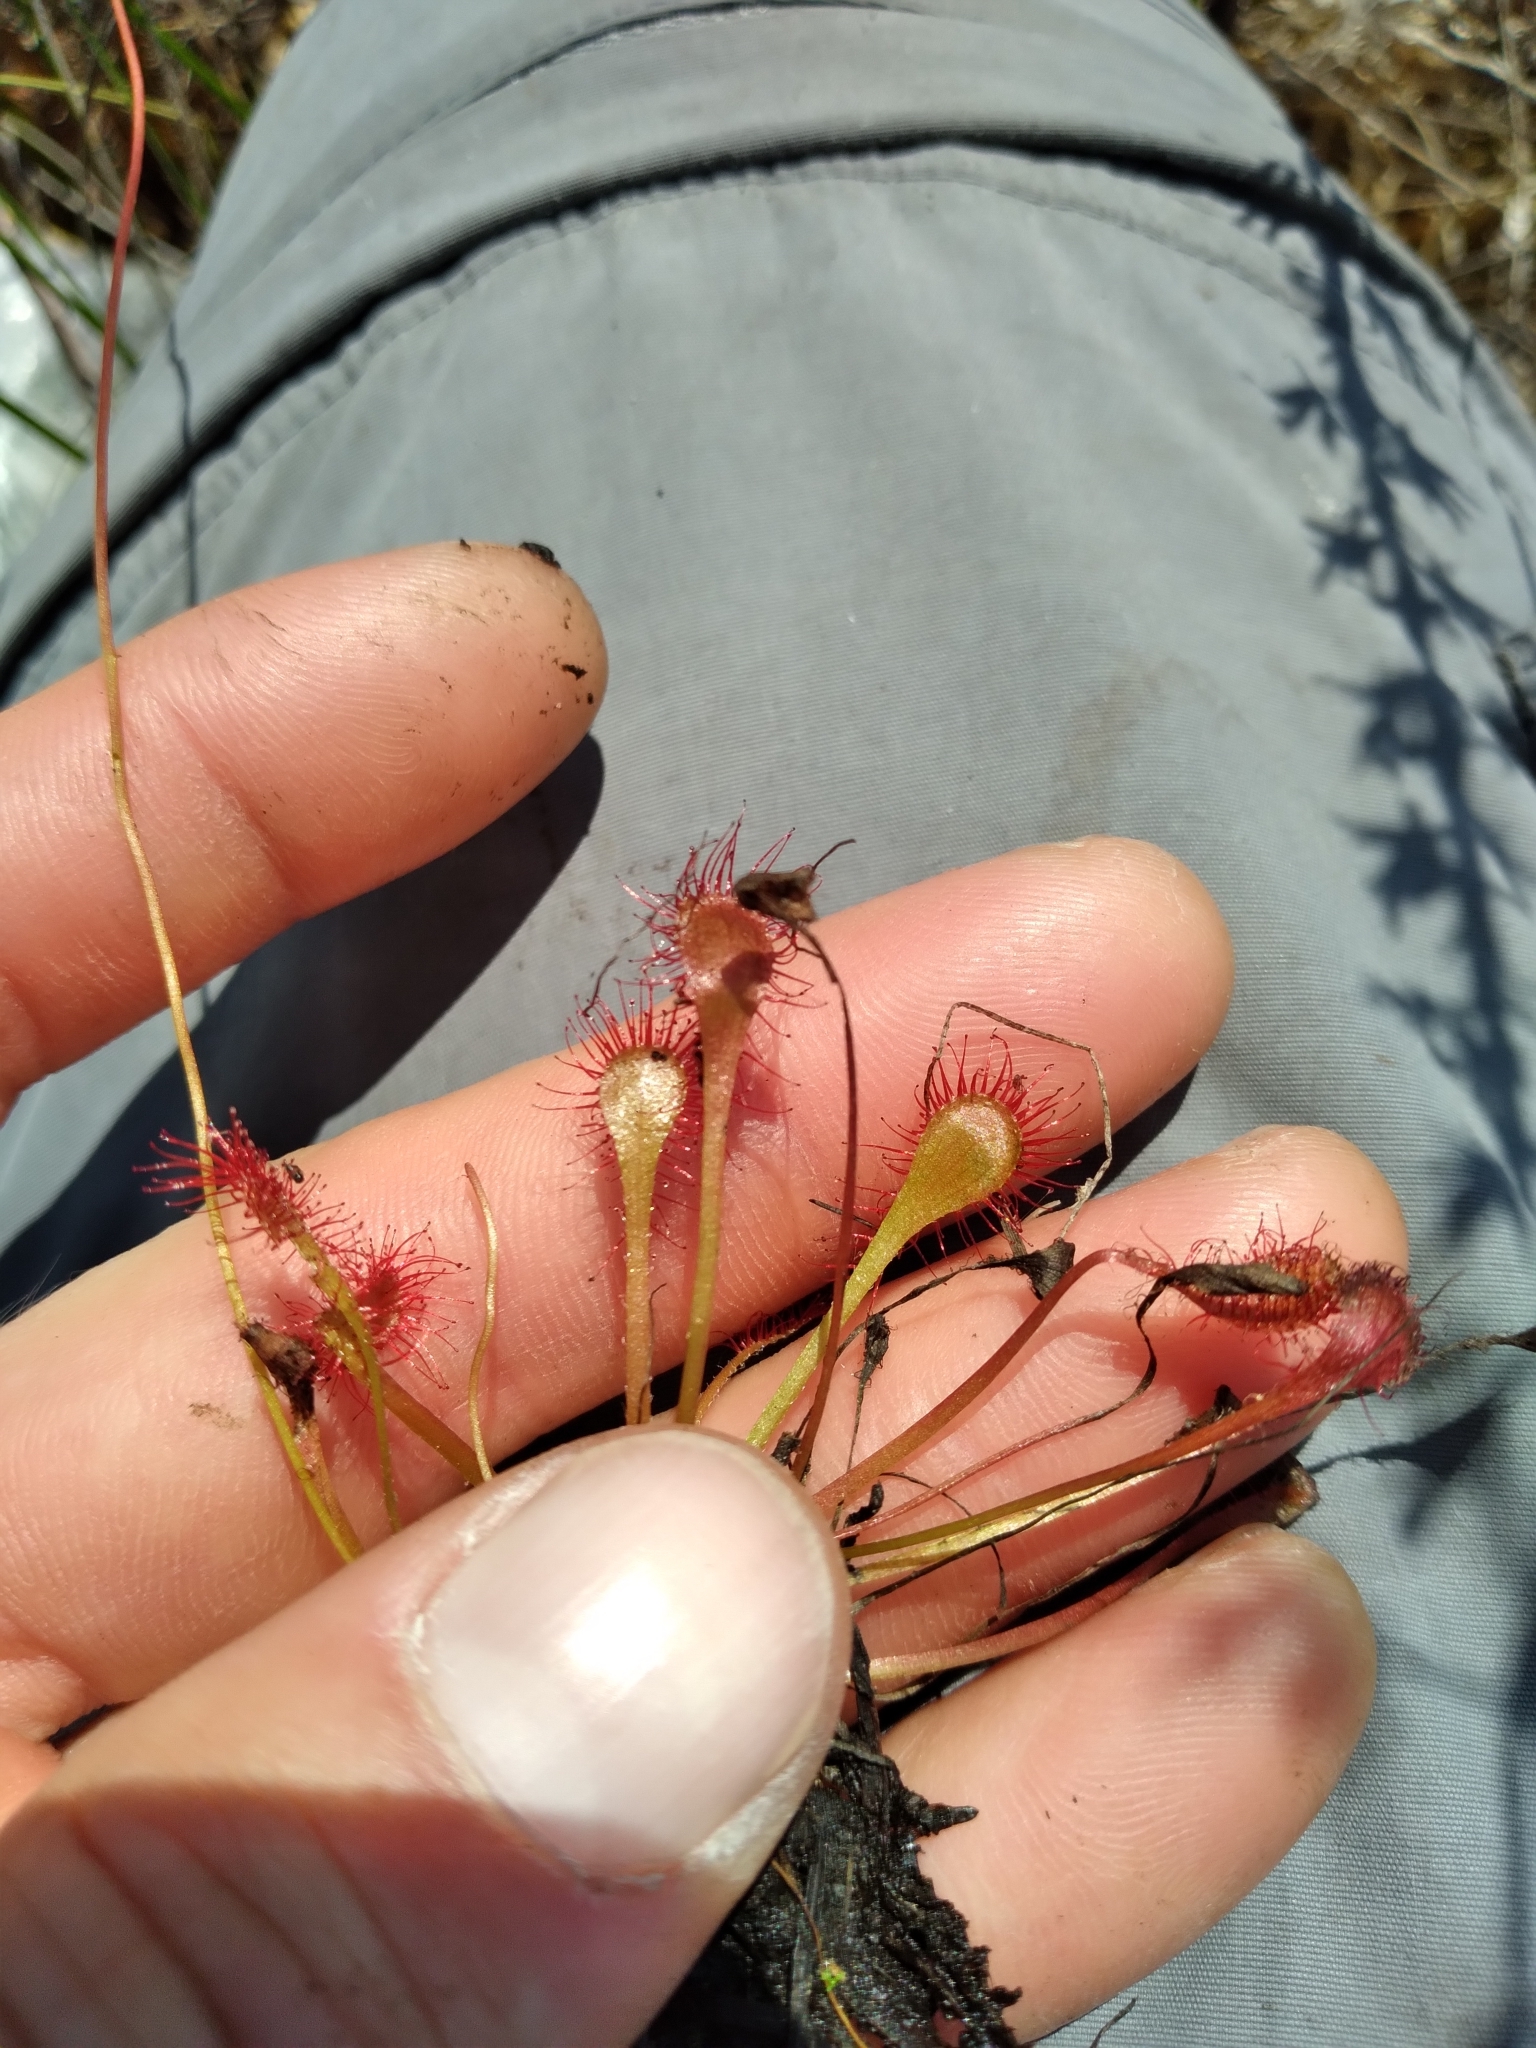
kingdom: Plantae
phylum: Tracheophyta
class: Magnoliopsida
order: Caryophyllales
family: Droseraceae
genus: Drosera
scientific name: Drosera capillaris
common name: Pink sundew
